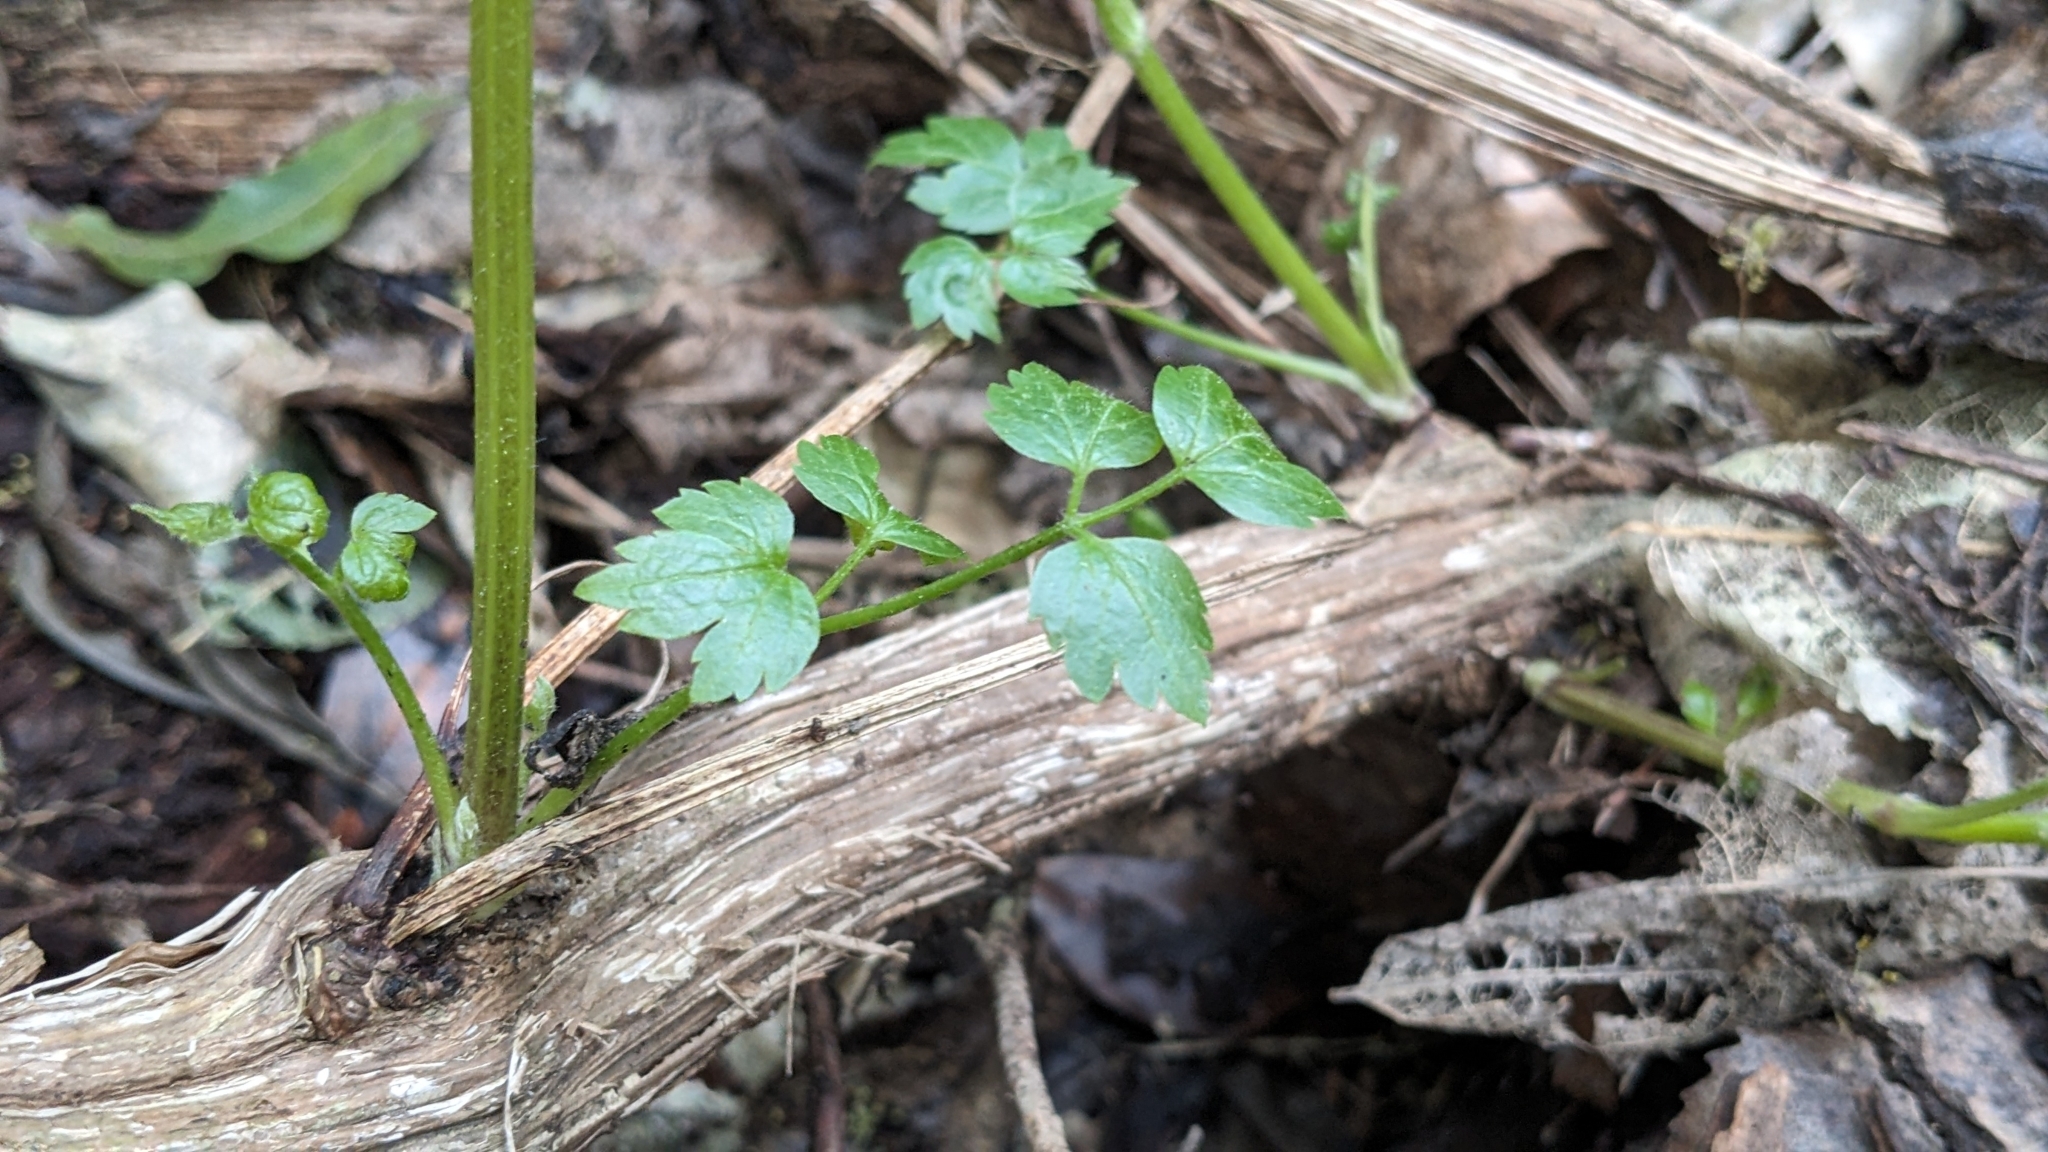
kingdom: Plantae
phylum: Tracheophyta
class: Magnoliopsida
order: Ranunculales
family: Ranunculaceae
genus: Clematis
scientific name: Clematis vitalba
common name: Evergreen clematis
